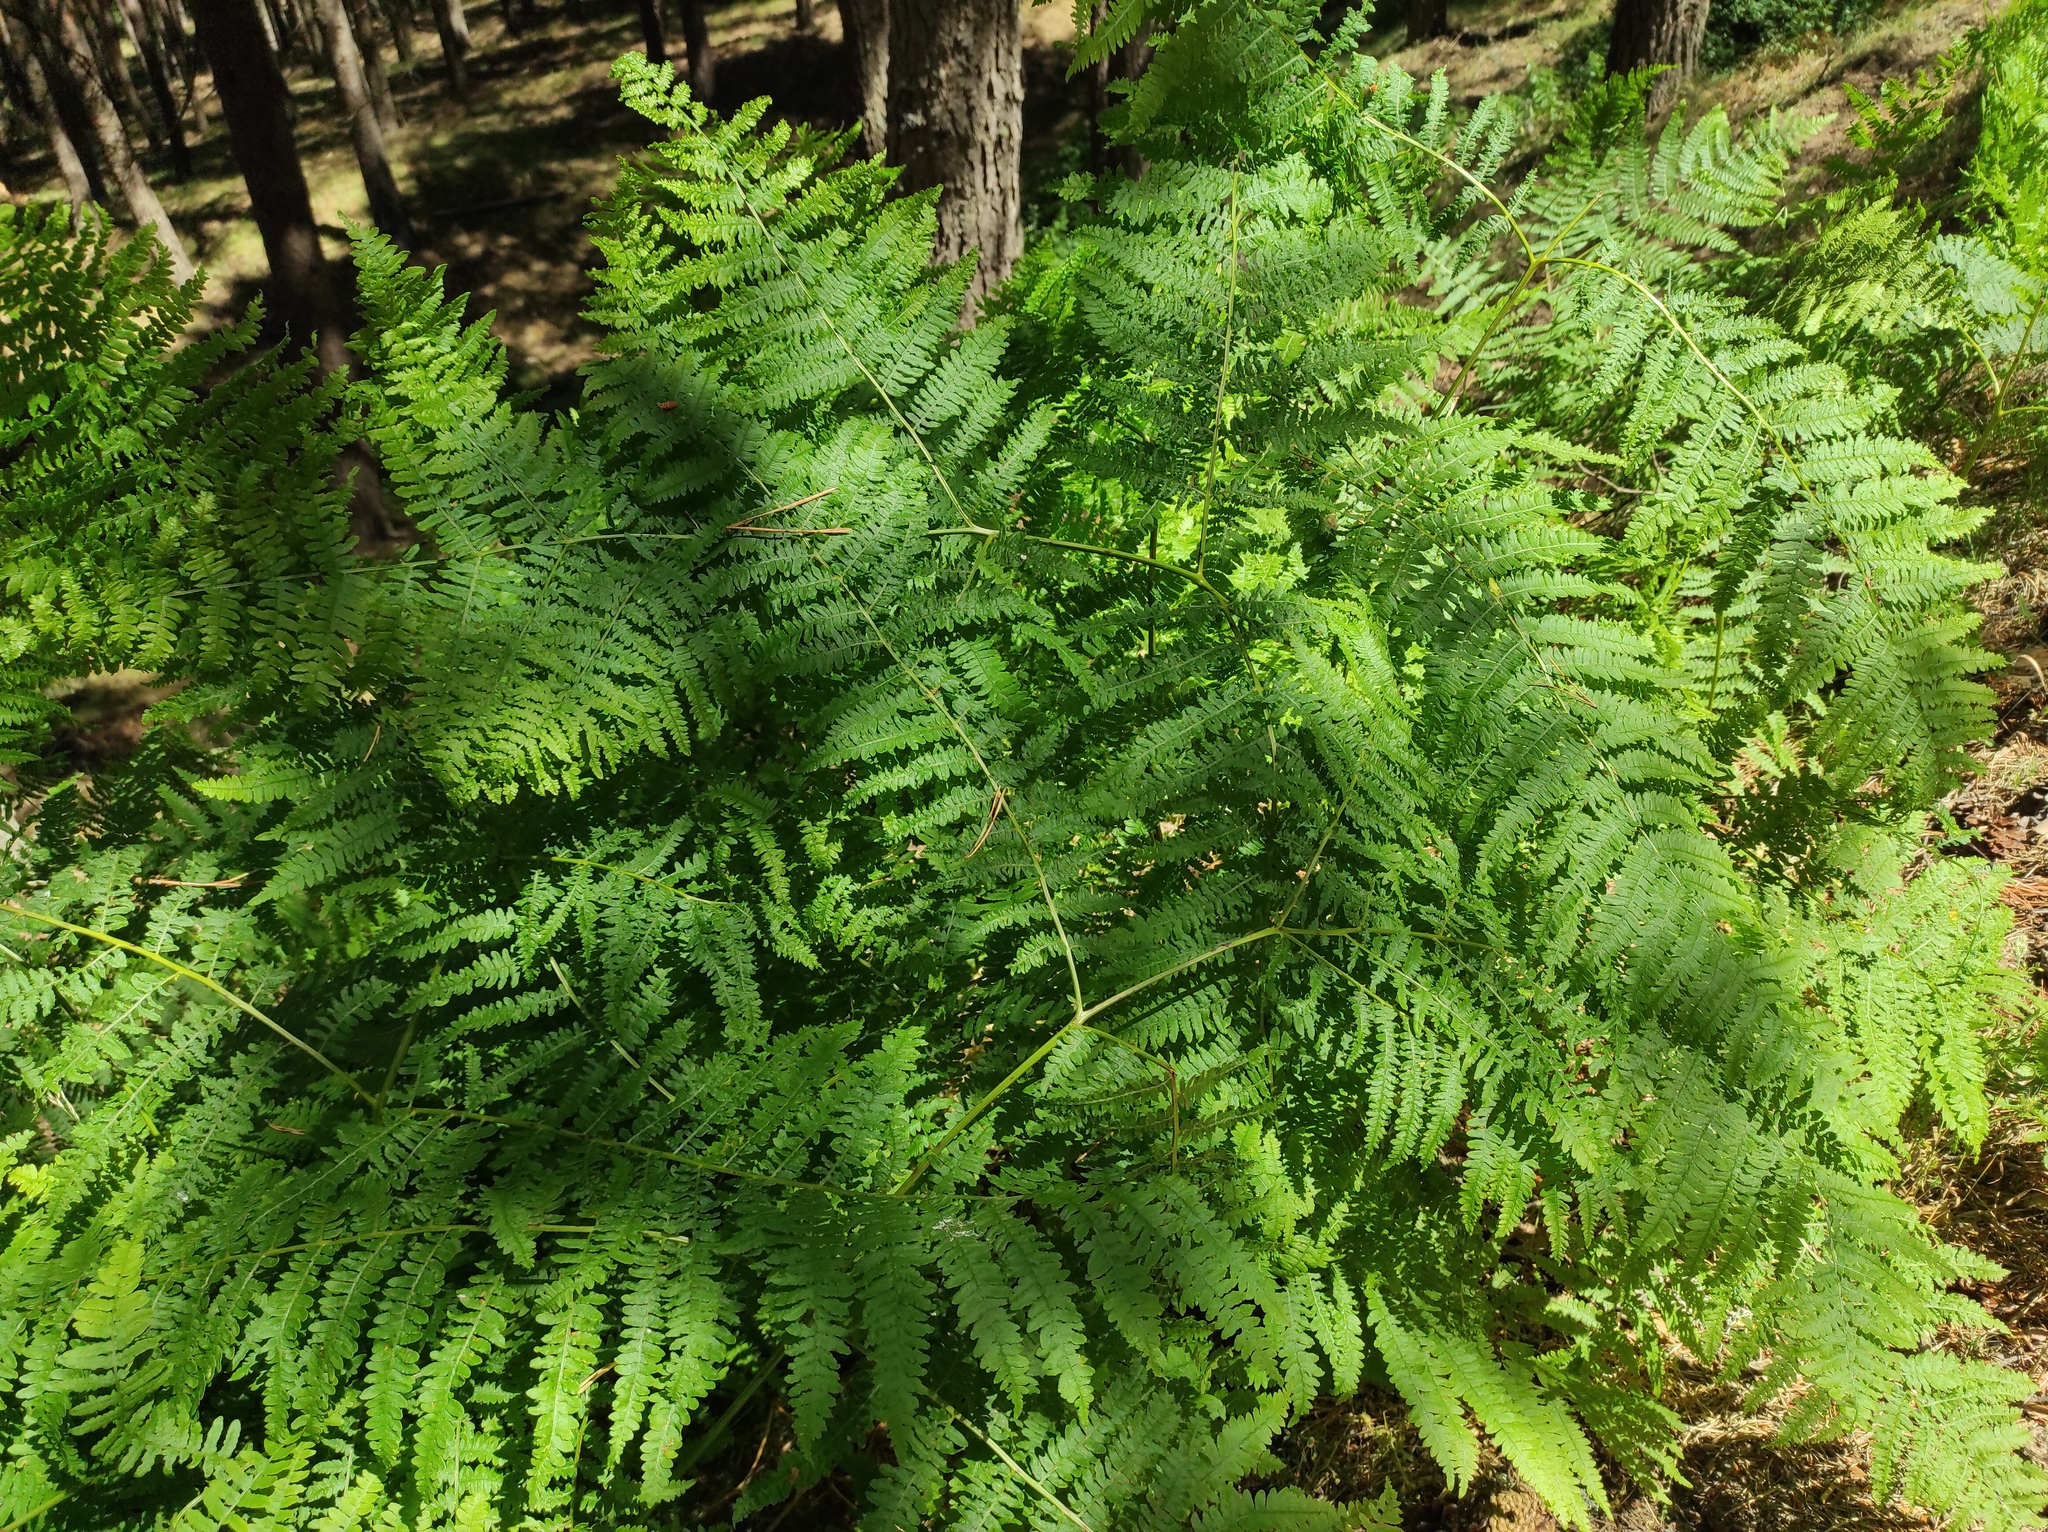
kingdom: Plantae
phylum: Tracheophyta
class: Polypodiopsida
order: Polypodiales
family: Dennstaedtiaceae
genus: Pteridium
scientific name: Pteridium aquilinum
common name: Bracken
